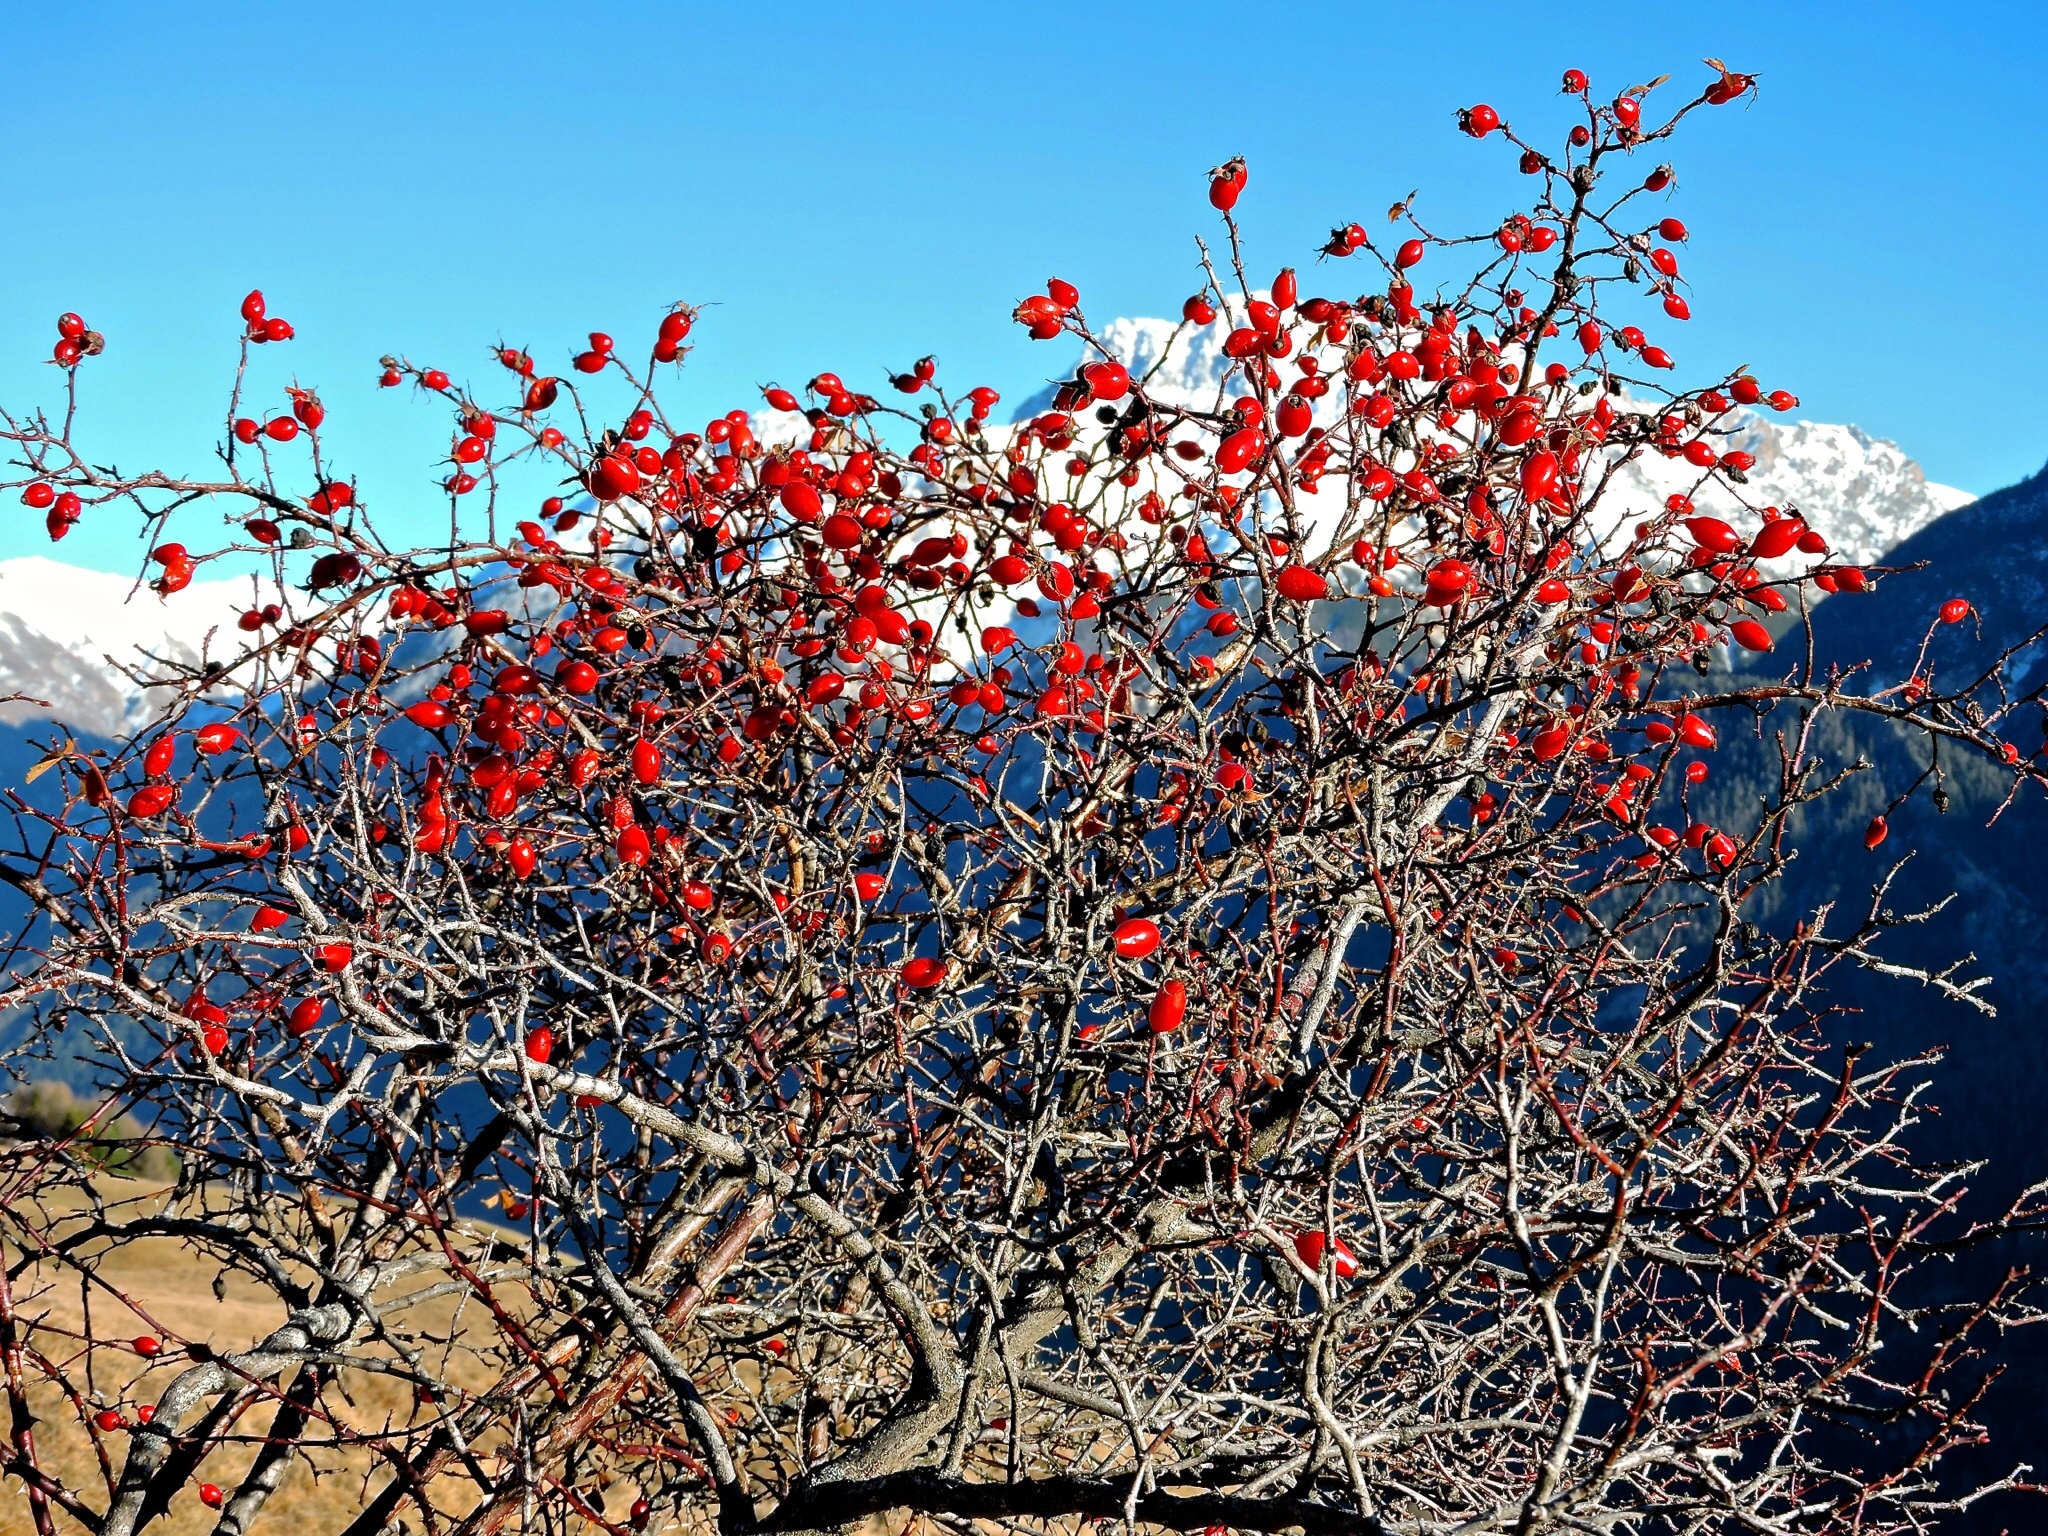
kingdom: Plantae
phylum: Tracheophyta
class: Magnoliopsida
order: Rosales
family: Rosaceae
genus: Rosa
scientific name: Rosa canina
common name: Dog rose
